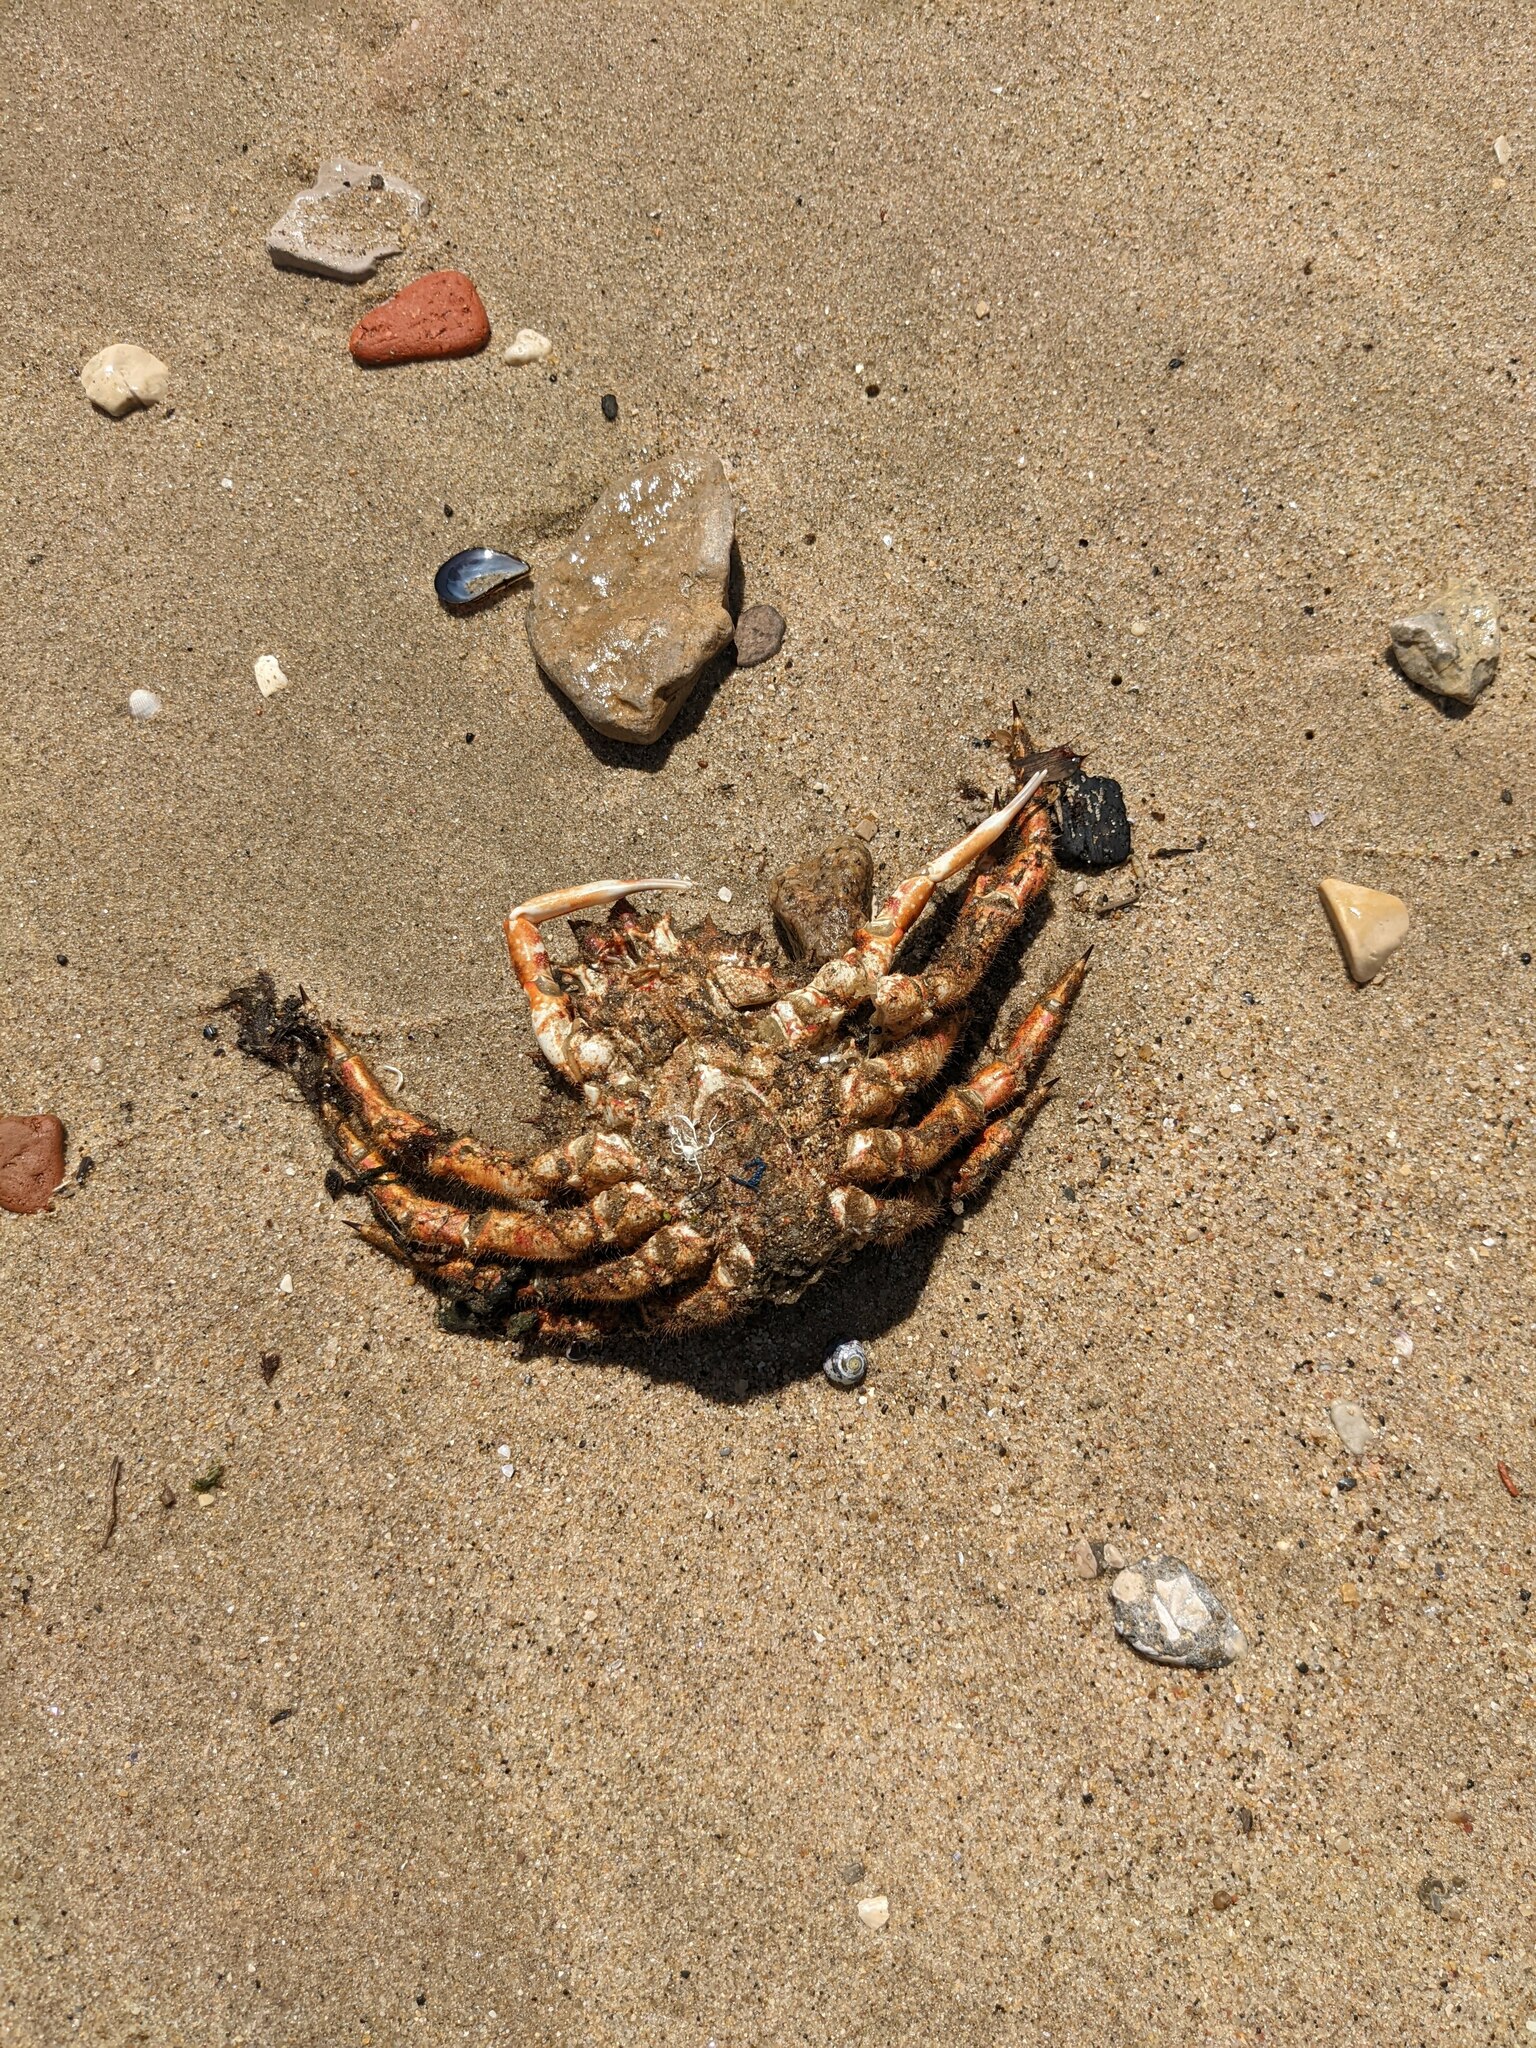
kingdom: Animalia
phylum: Arthropoda
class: Malacostraca
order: Decapoda
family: Majidae
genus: Maja
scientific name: Maja brachydactyla
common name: Common spider crab
